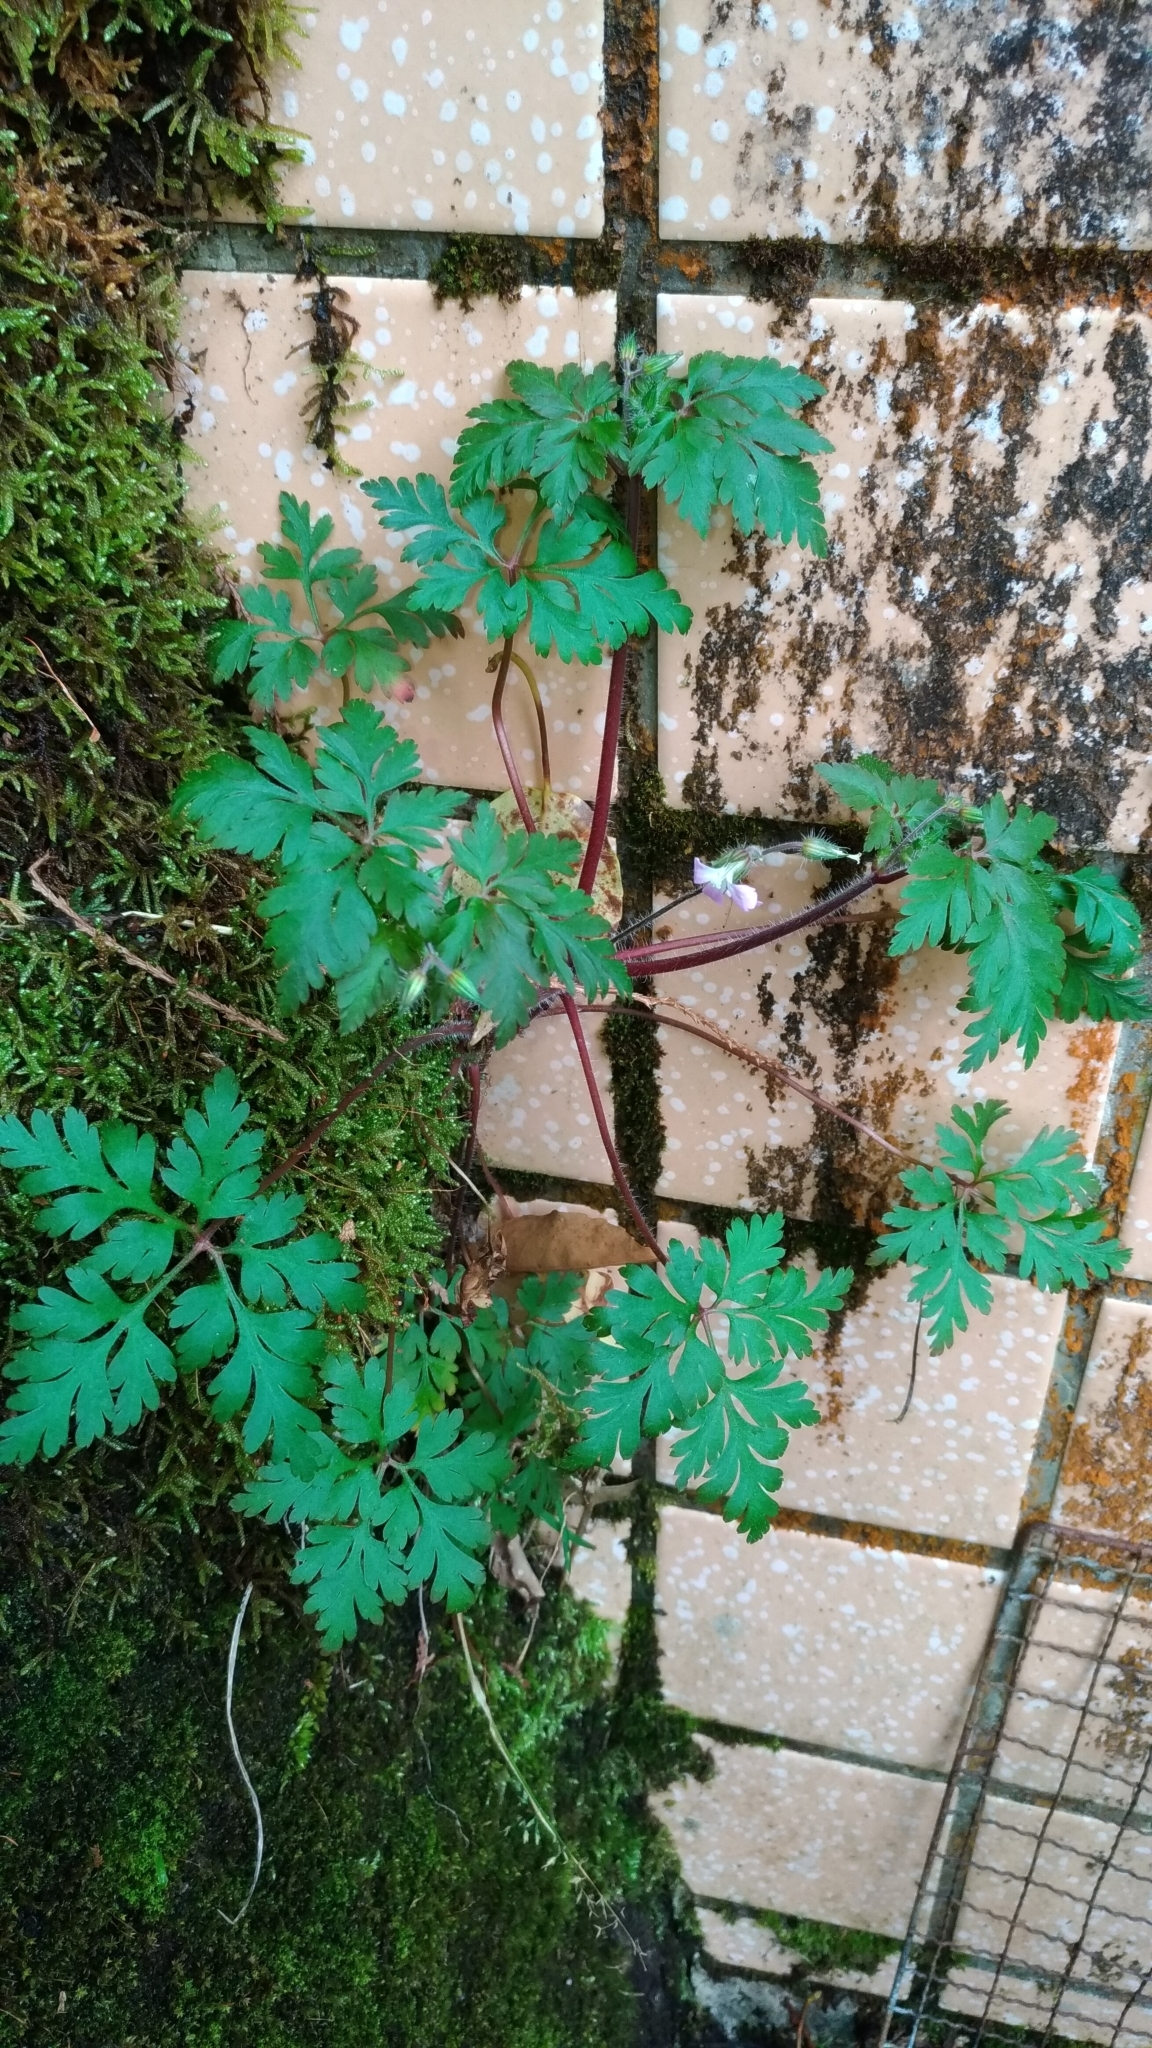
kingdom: Plantae
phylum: Tracheophyta
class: Magnoliopsida
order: Geraniales
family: Geraniaceae
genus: Geranium
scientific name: Geranium robertianum
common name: Herb-robert
